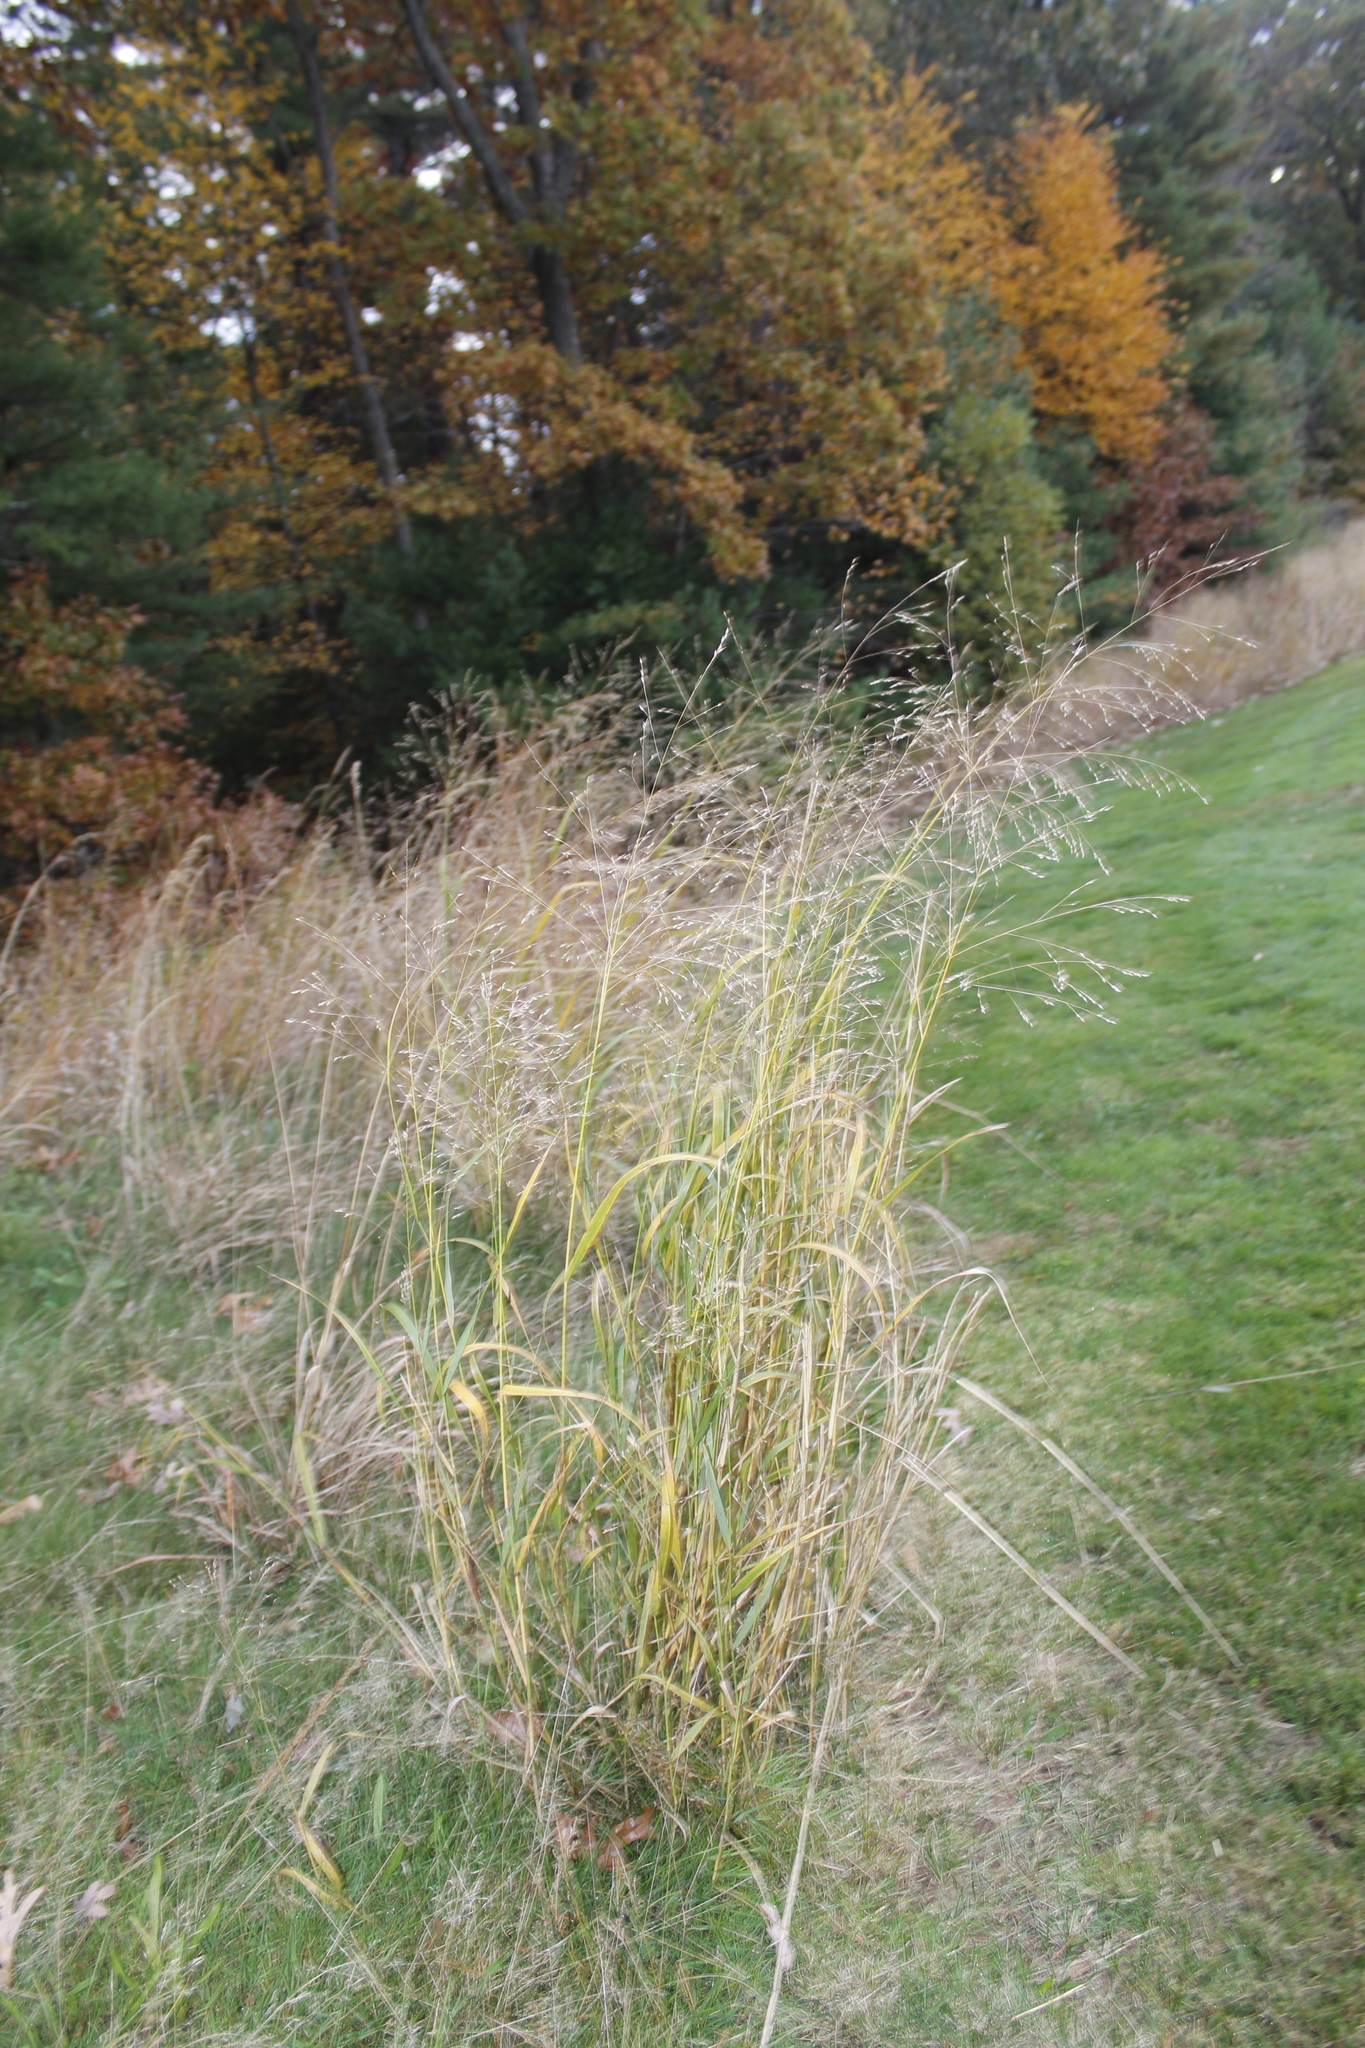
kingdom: Plantae
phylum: Tracheophyta
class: Liliopsida
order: Poales
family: Poaceae
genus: Panicum
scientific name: Panicum virgatum
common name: Switchgrass
